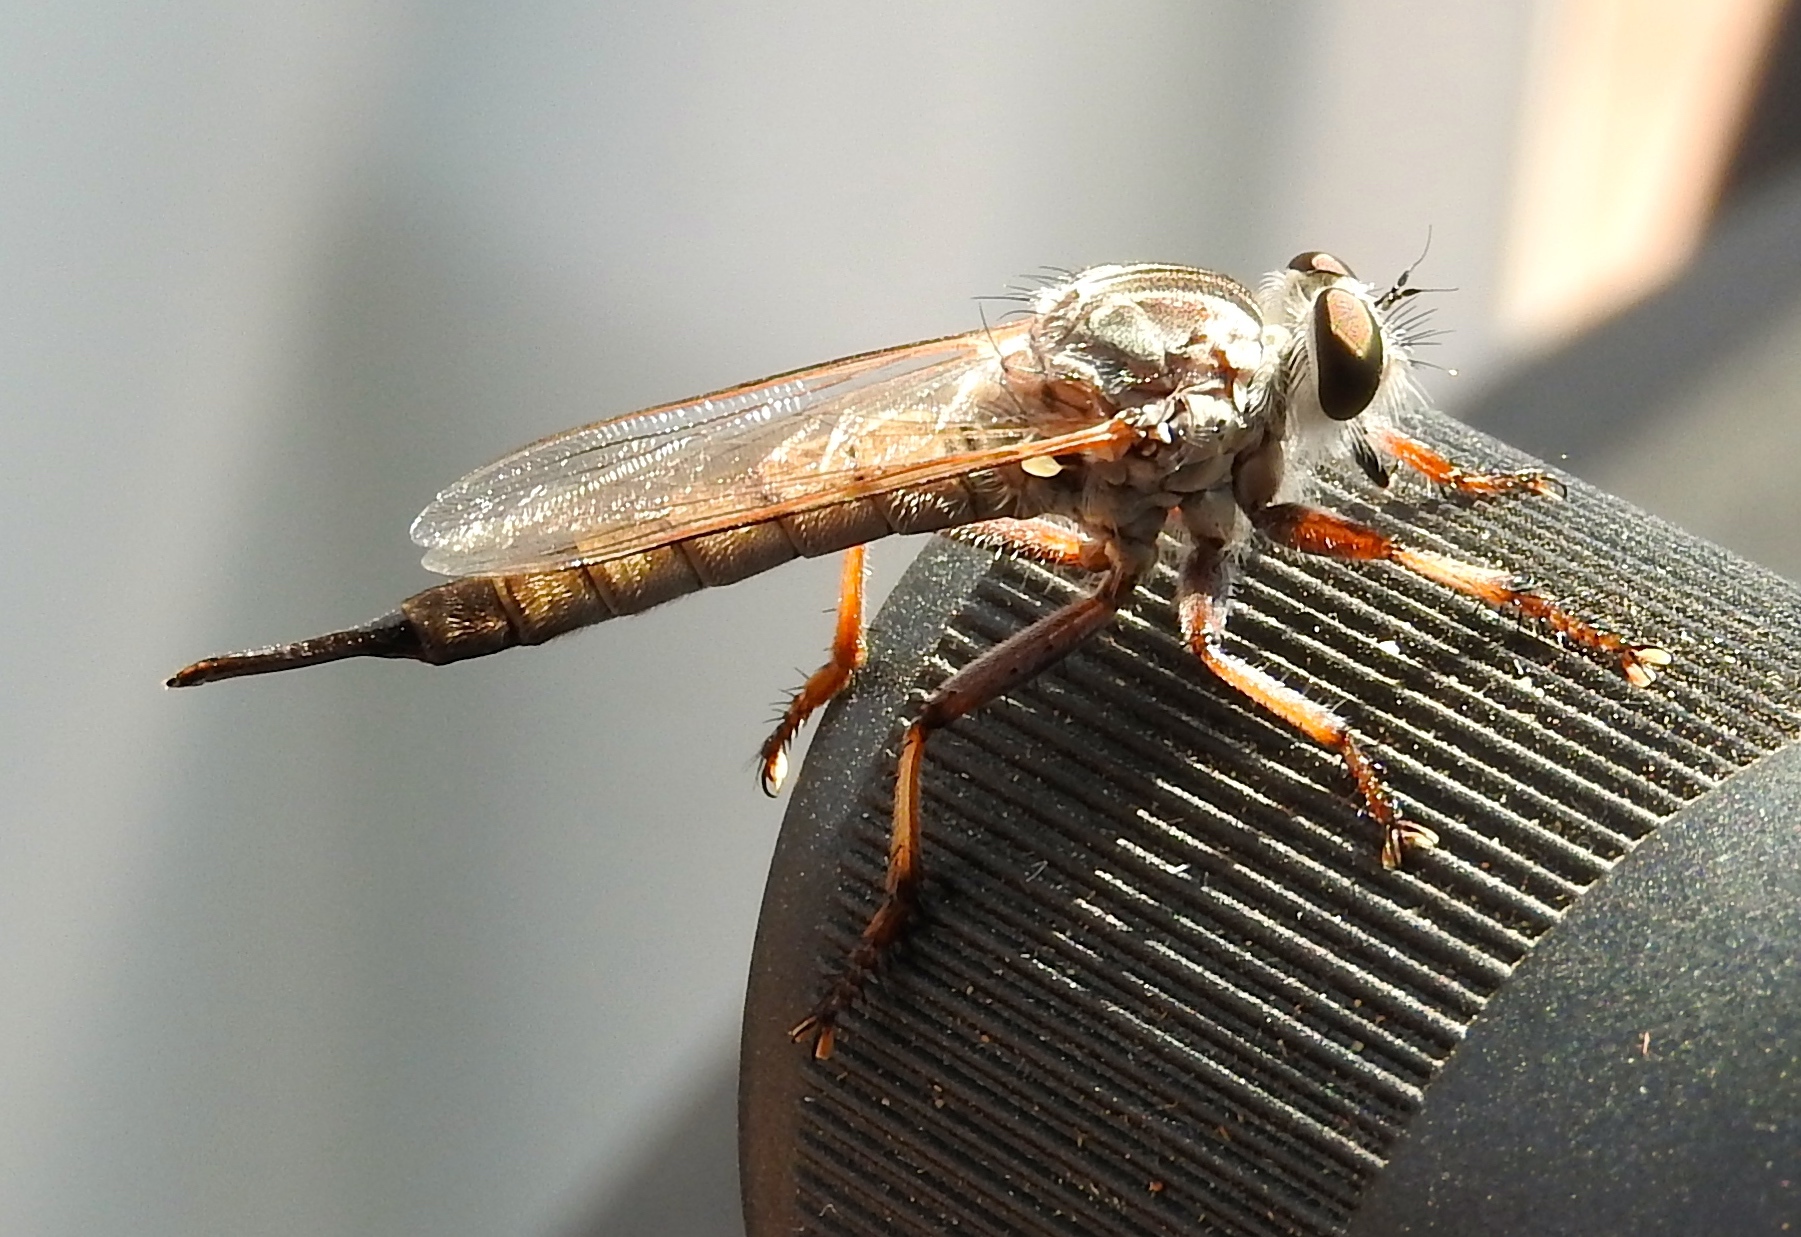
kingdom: Animalia
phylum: Arthropoda
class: Insecta
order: Diptera
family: Asilidae
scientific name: Asilidae
